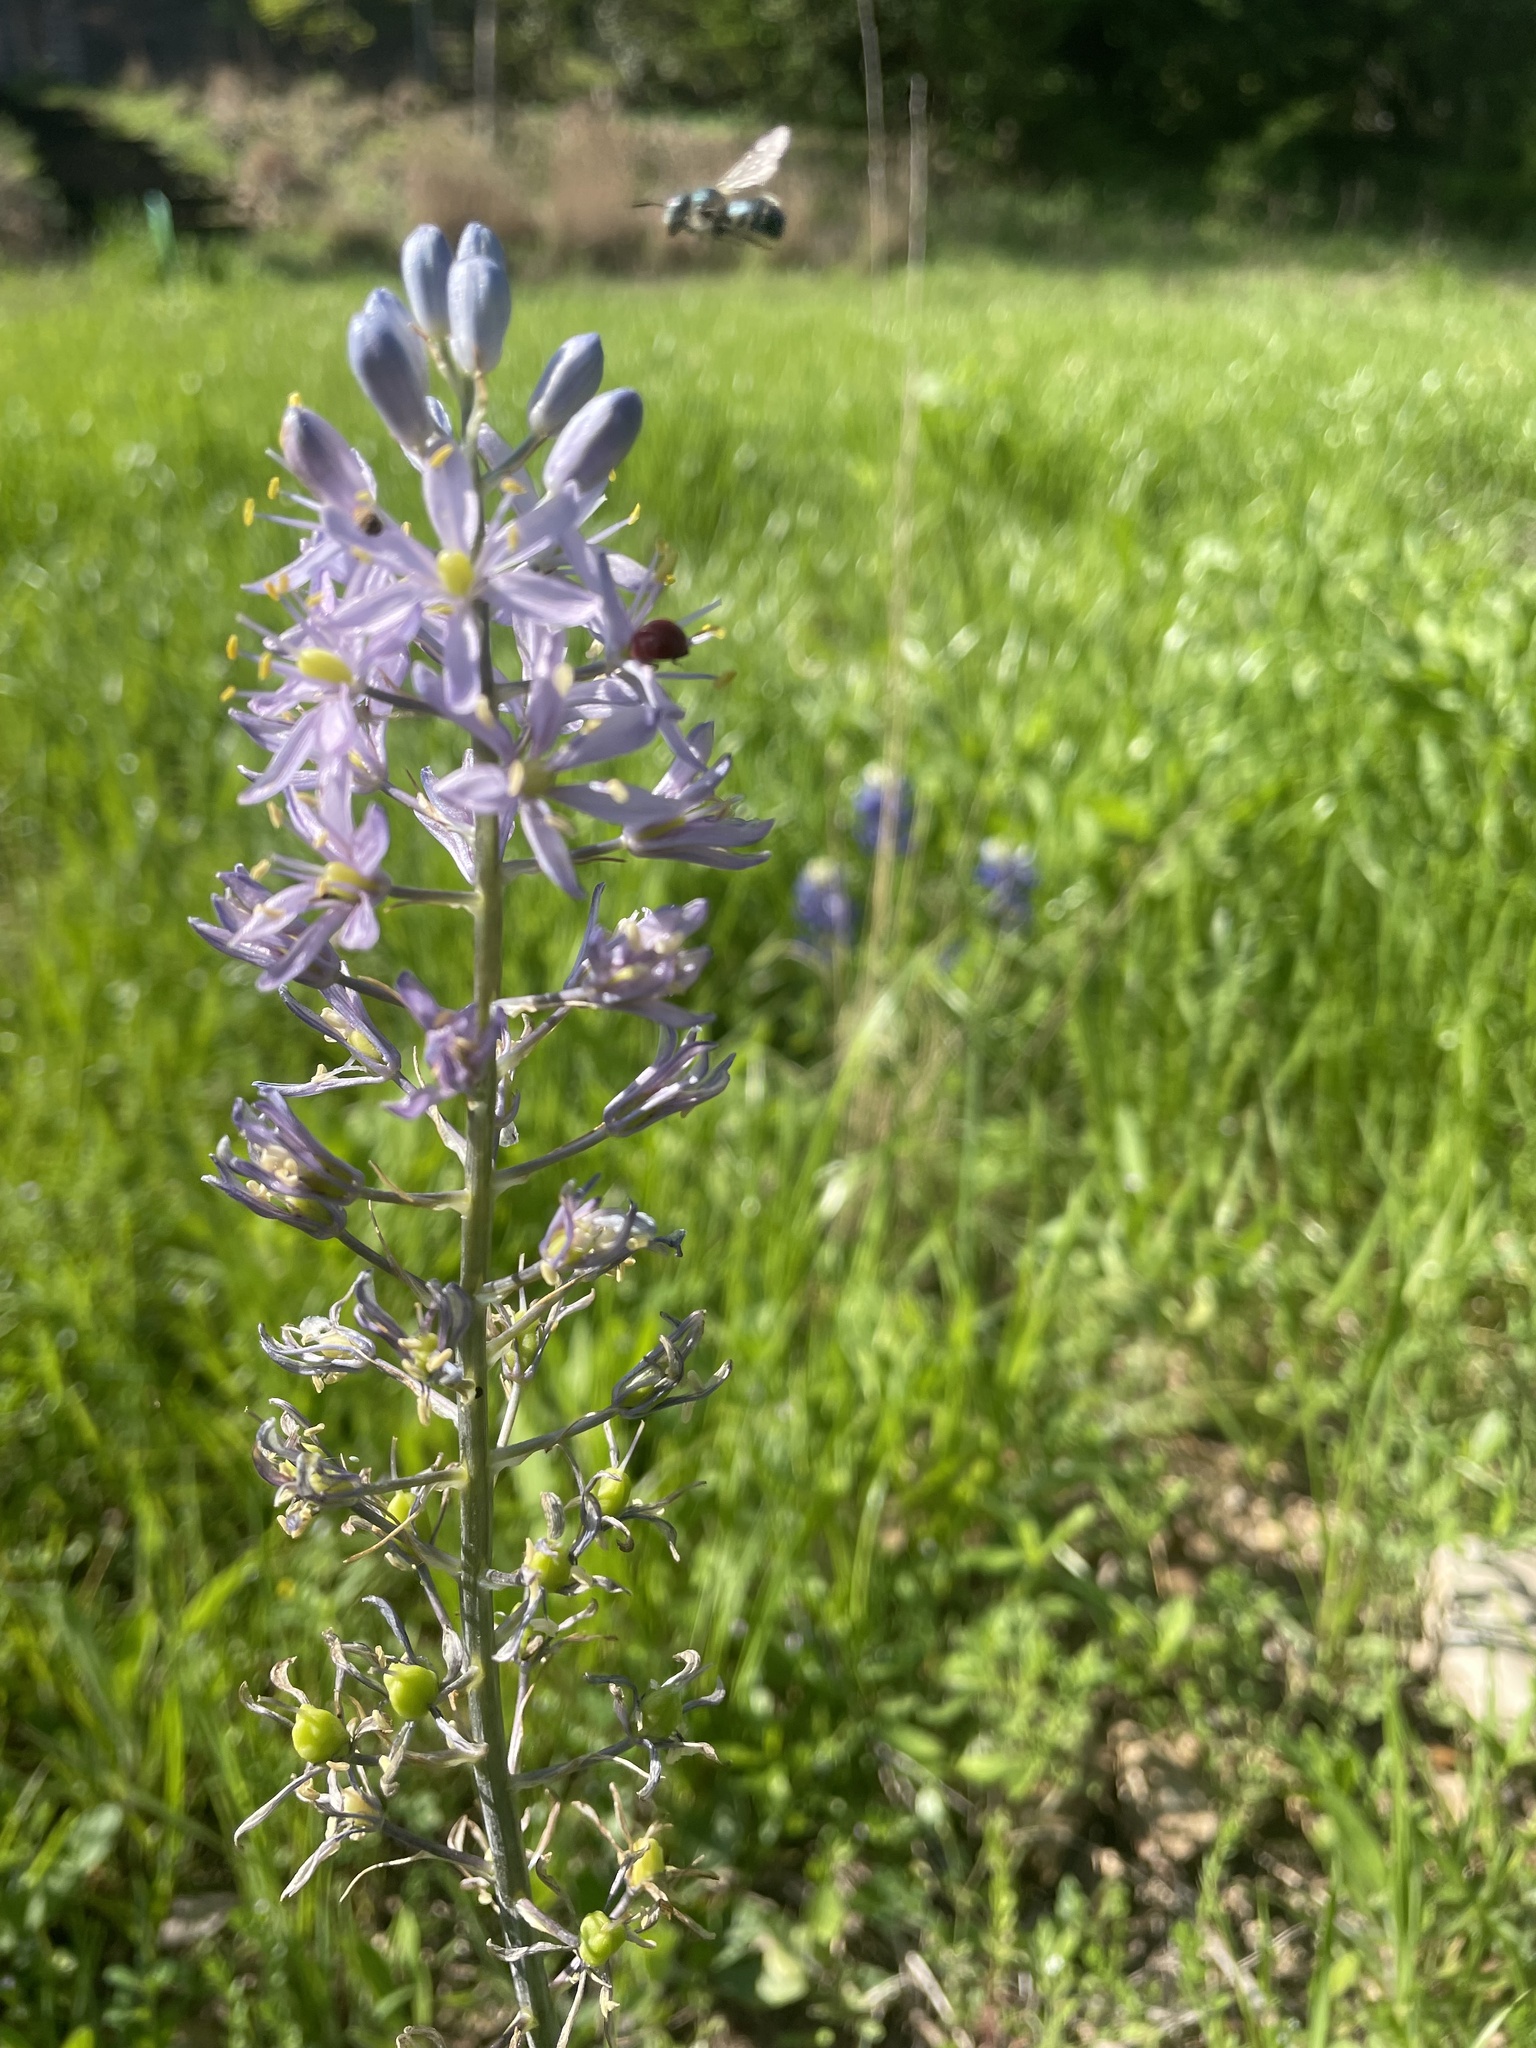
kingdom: Plantae
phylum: Tracheophyta
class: Liliopsida
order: Asparagales
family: Asparagaceae
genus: Camassia
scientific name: Camassia scilloides
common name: Wild hyacinth
